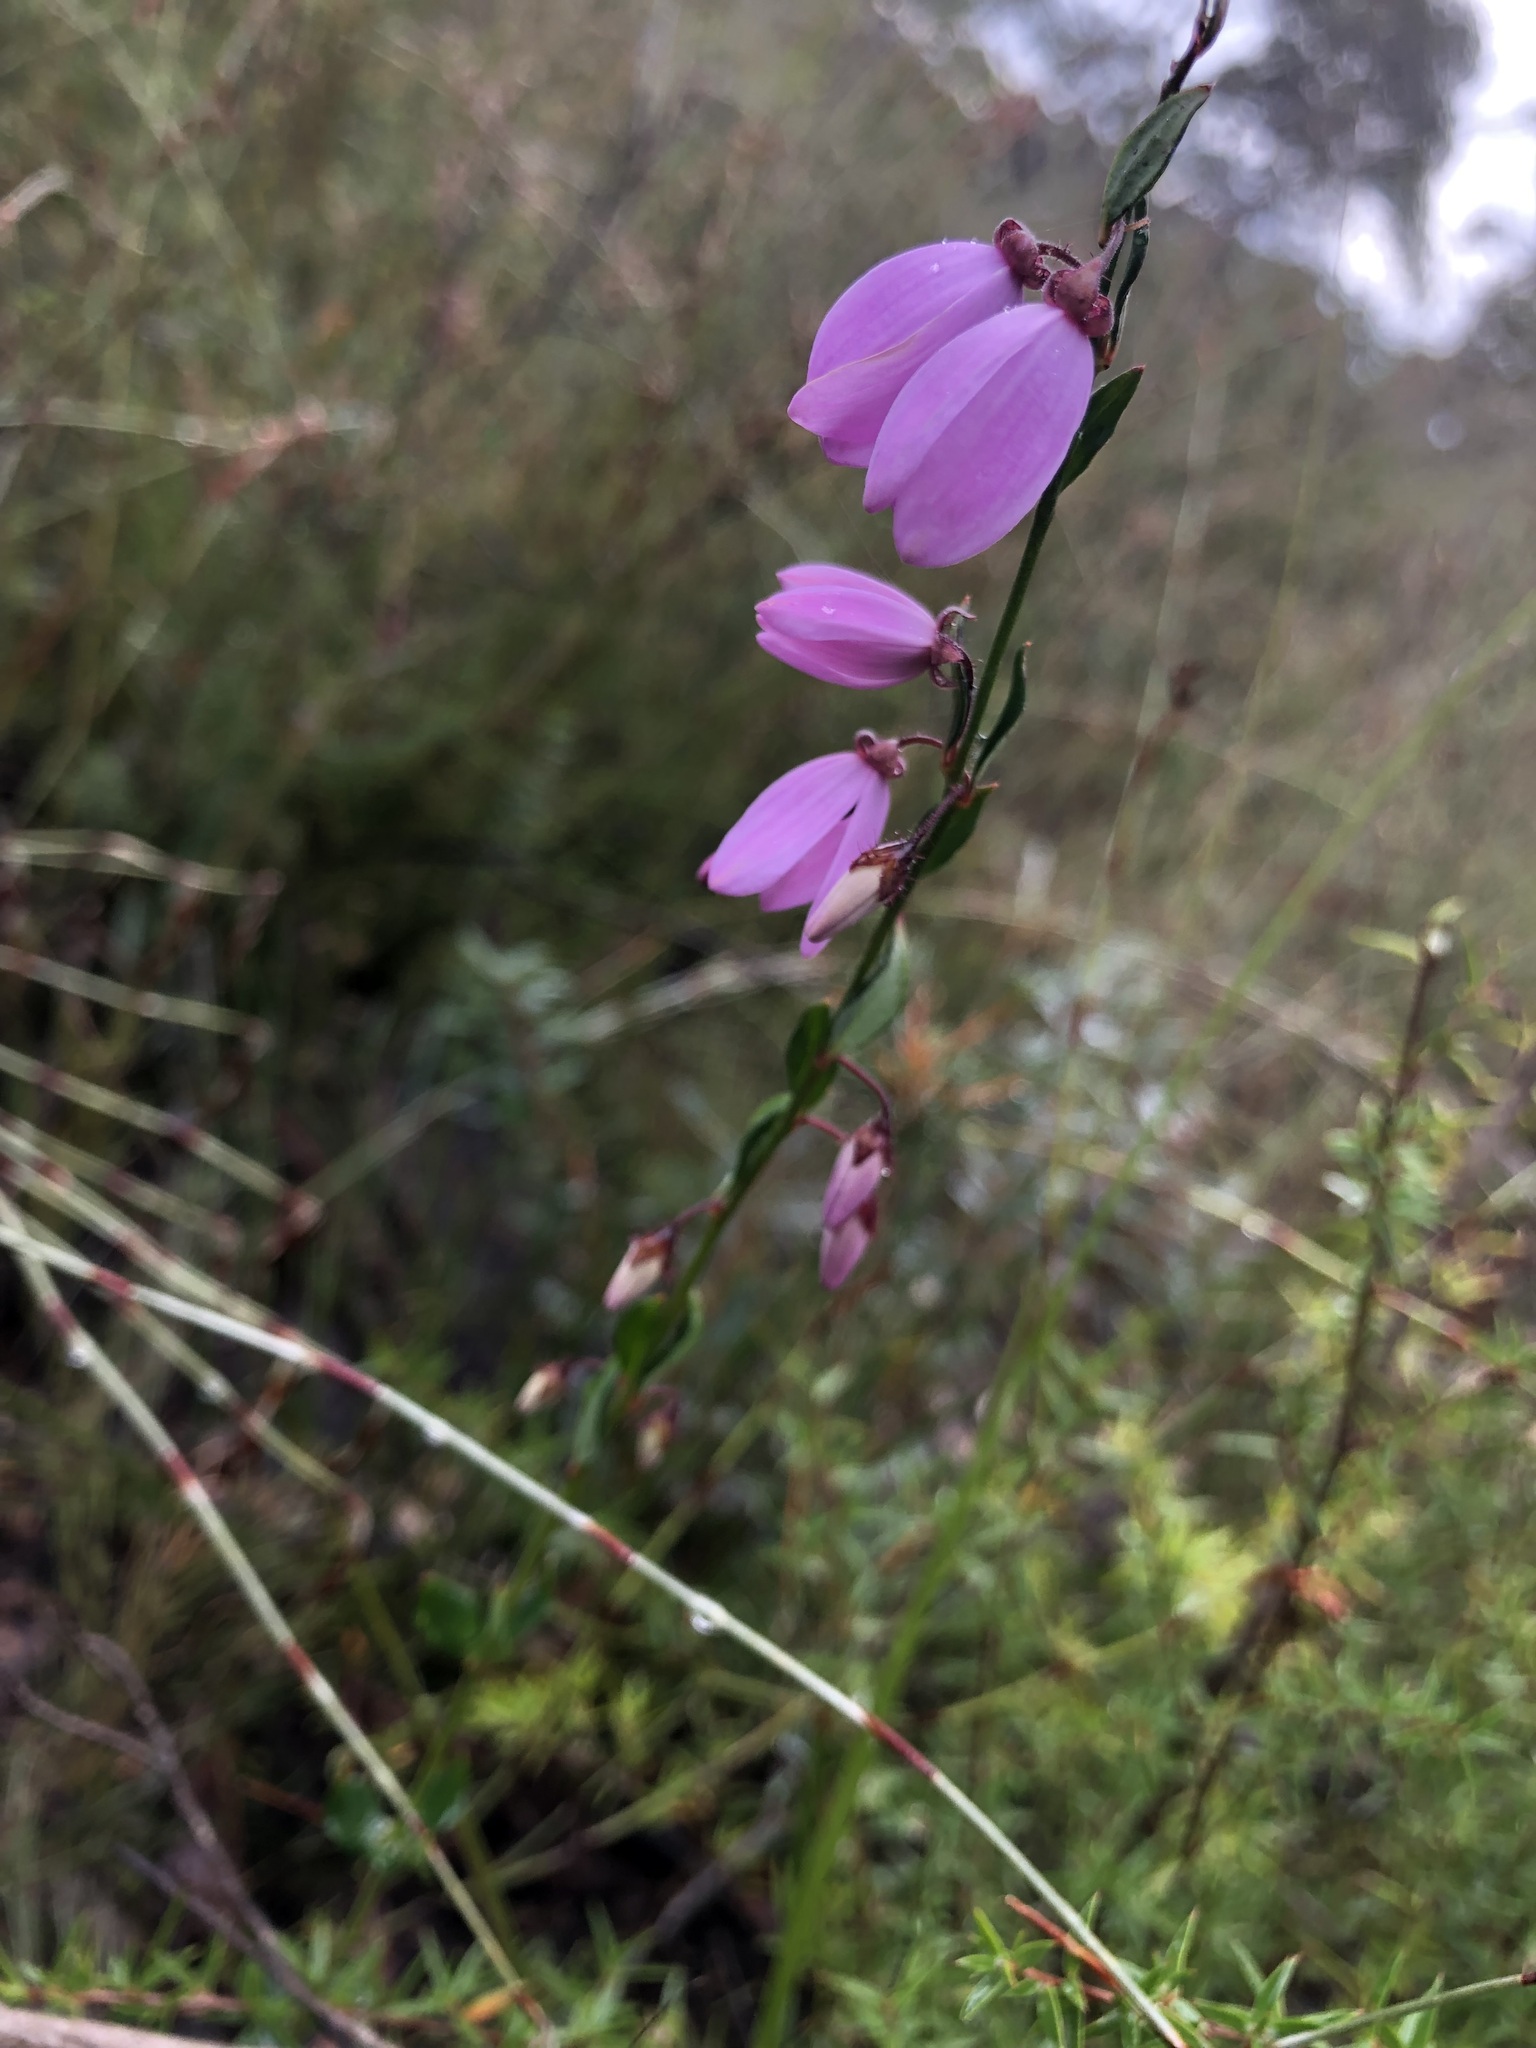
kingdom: Plantae
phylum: Tracheophyta
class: Magnoliopsida
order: Oxalidales
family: Elaeocarpaceae
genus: Tetratheca
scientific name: Tetratheca ciliata
